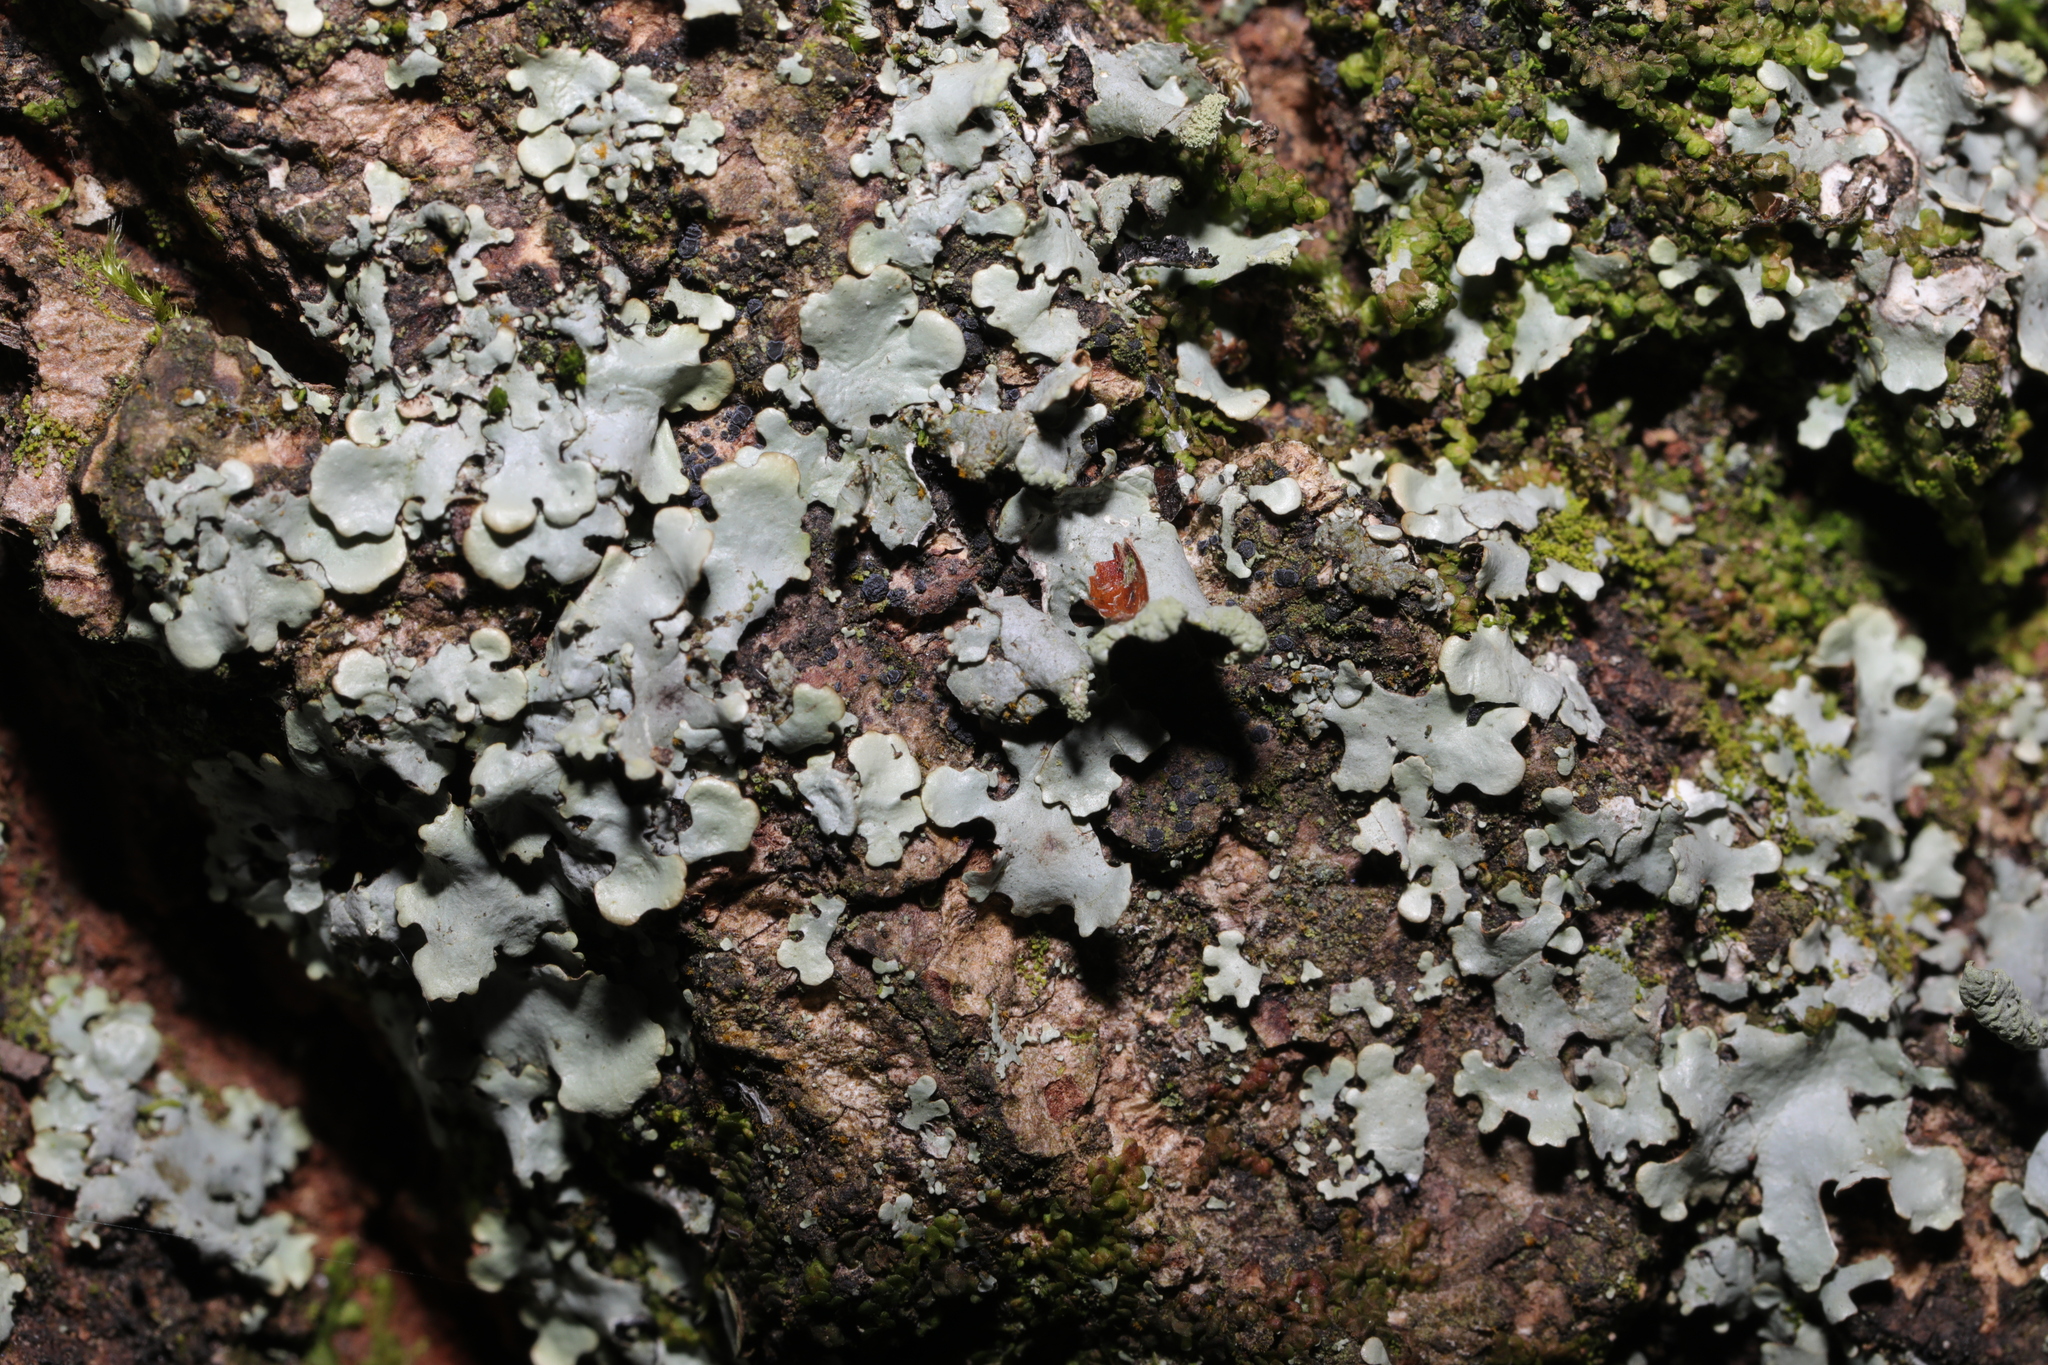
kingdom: Fungi
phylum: Ascomycota
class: Lecanoromycetes
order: Lecanorales
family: Parmeliaceae
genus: Hypotrachyna
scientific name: Hypotrachyna revoluta
